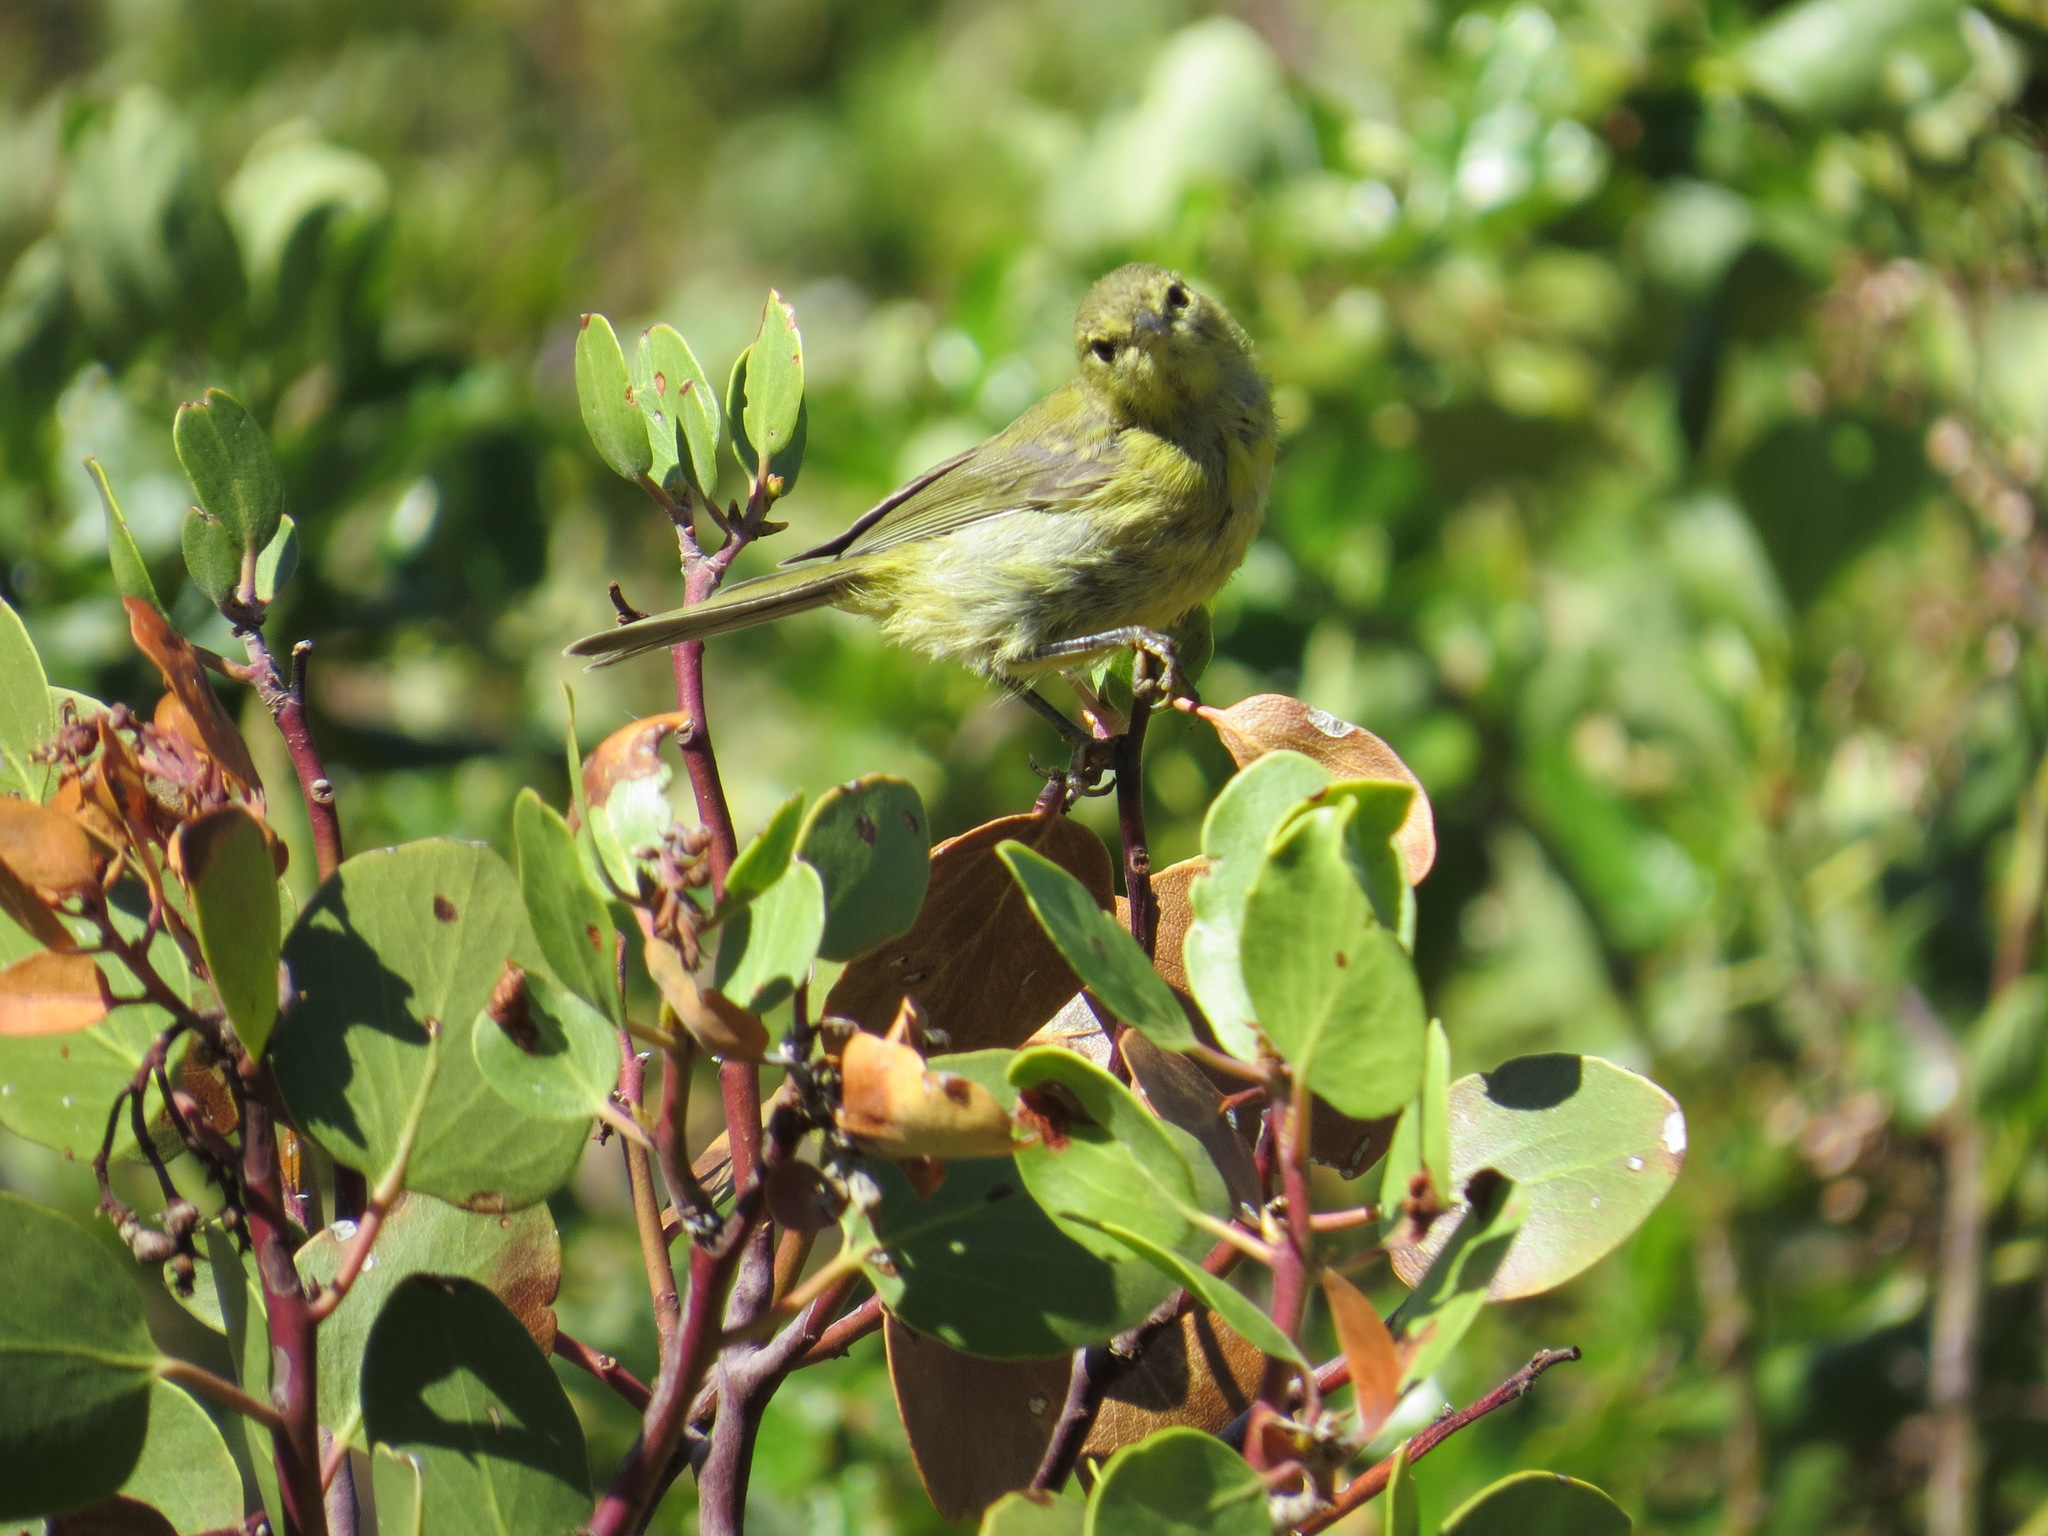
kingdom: Animalia
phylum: Chordata
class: Aves
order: Passeriformes
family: Parulidae
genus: Leiothlypis
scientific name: Leiothlypis celata
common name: Orange-crowned warbler
